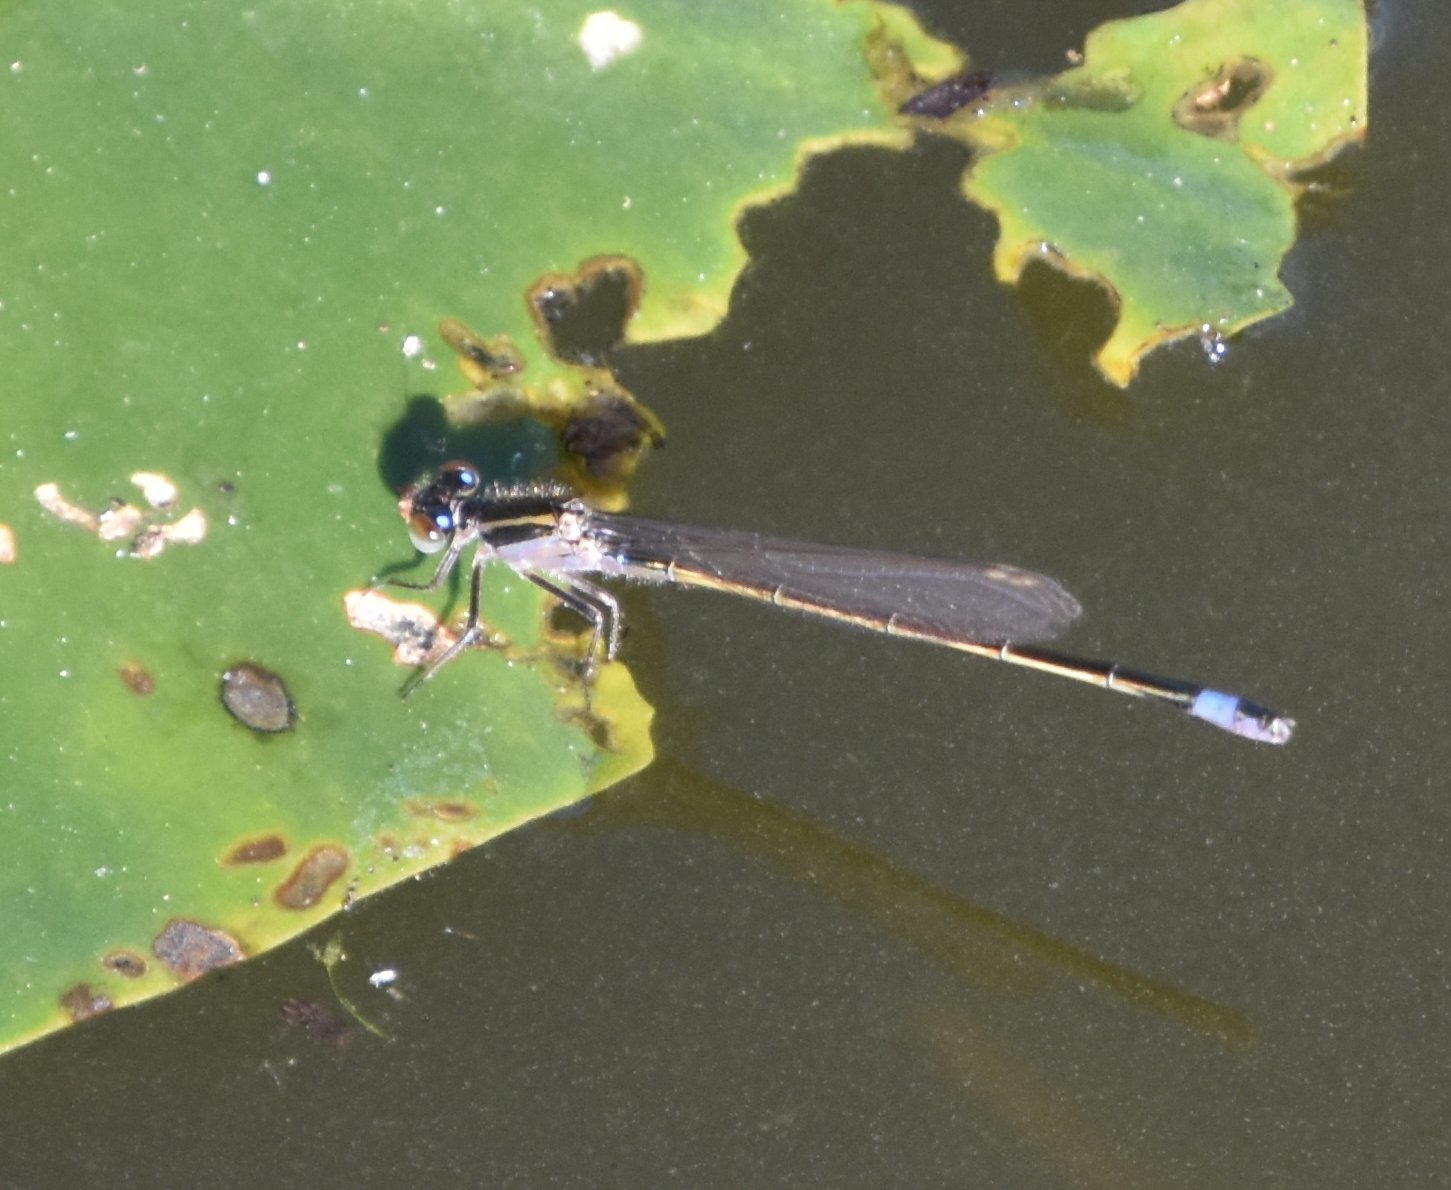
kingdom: Animalia
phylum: Arthropoda
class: Insecta
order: Odonata
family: Coenagrionidae
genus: Ischnura
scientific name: Ischnura ramburii
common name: Rambur's forktail
